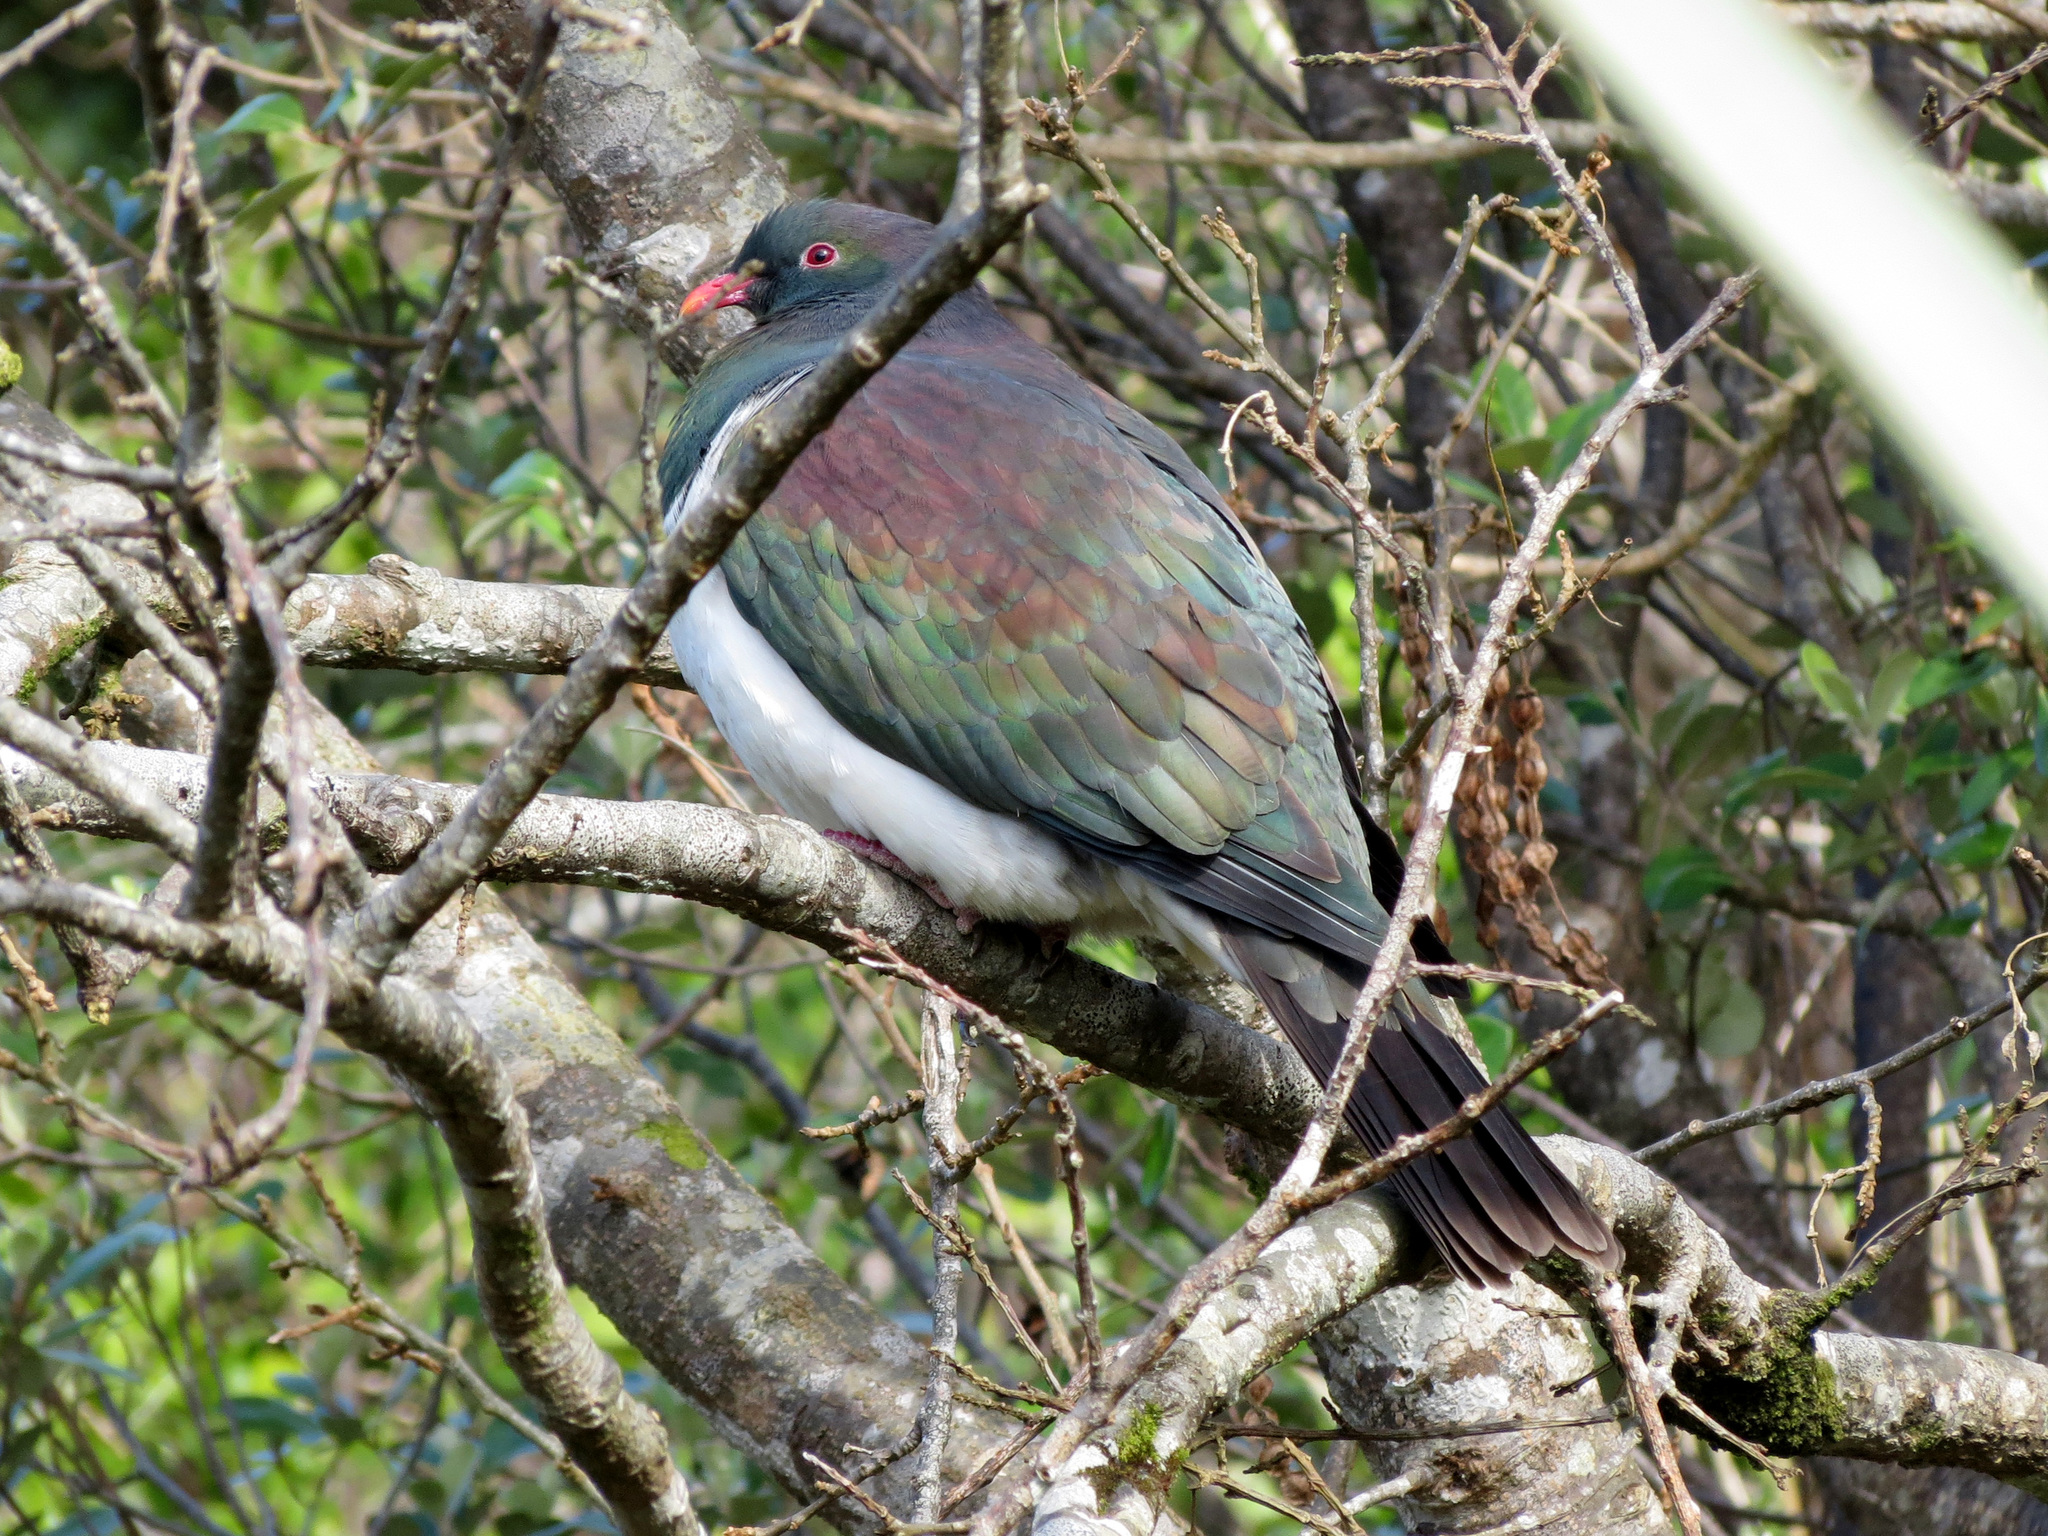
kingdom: Animalia
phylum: Chordata
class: Aves
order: Columbiformes
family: Columbidae
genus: Hemiphaga
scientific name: Hemiphaga novaeseelandiae
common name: New zealand pigeon
